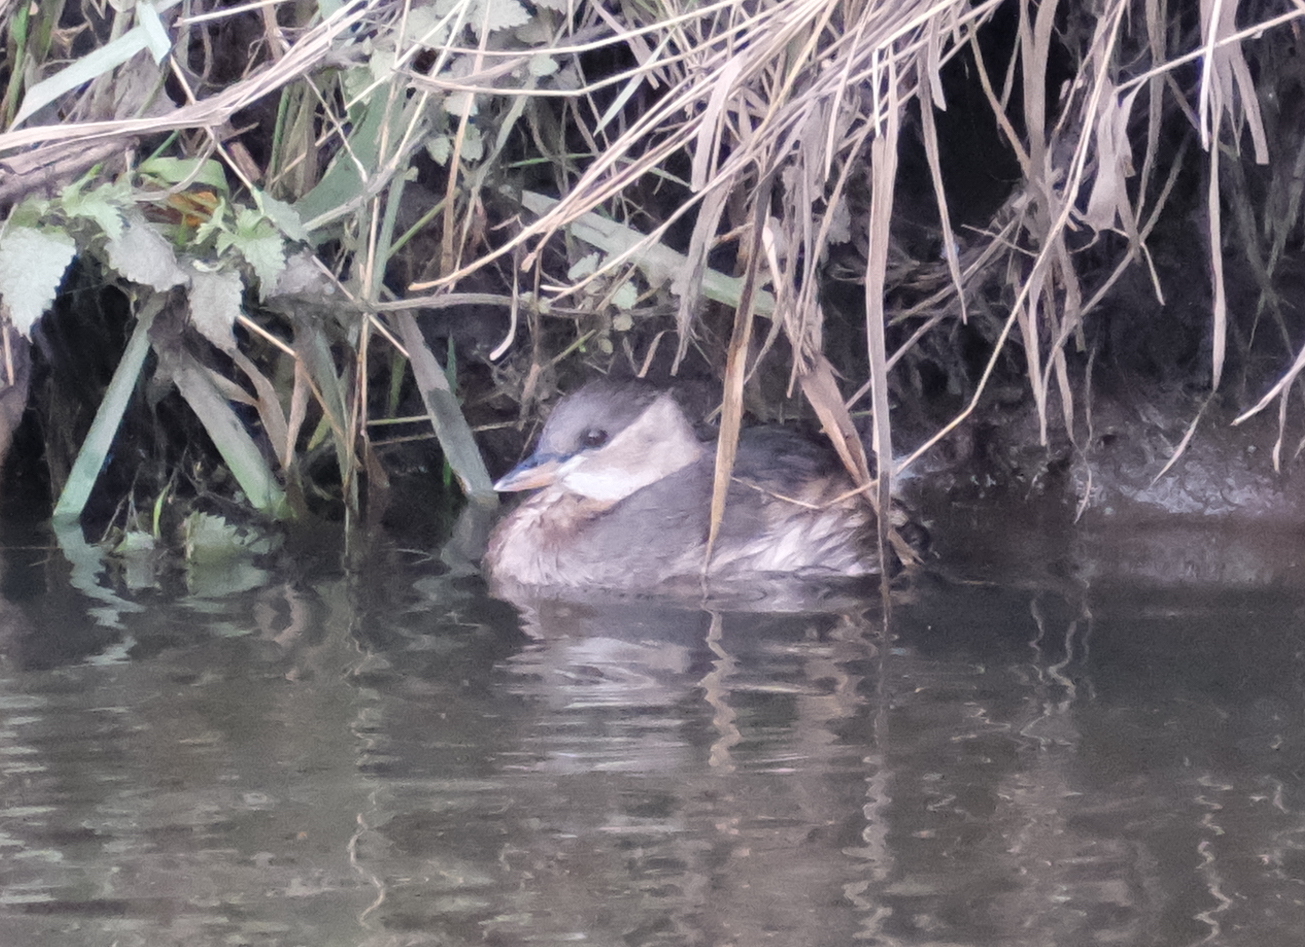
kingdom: Animalia
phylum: Chordata
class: Aves
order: Podicipediformes
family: Podicipedidae
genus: Tachybaptus
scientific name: Tachybaptus ruficollis
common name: Little grebe
